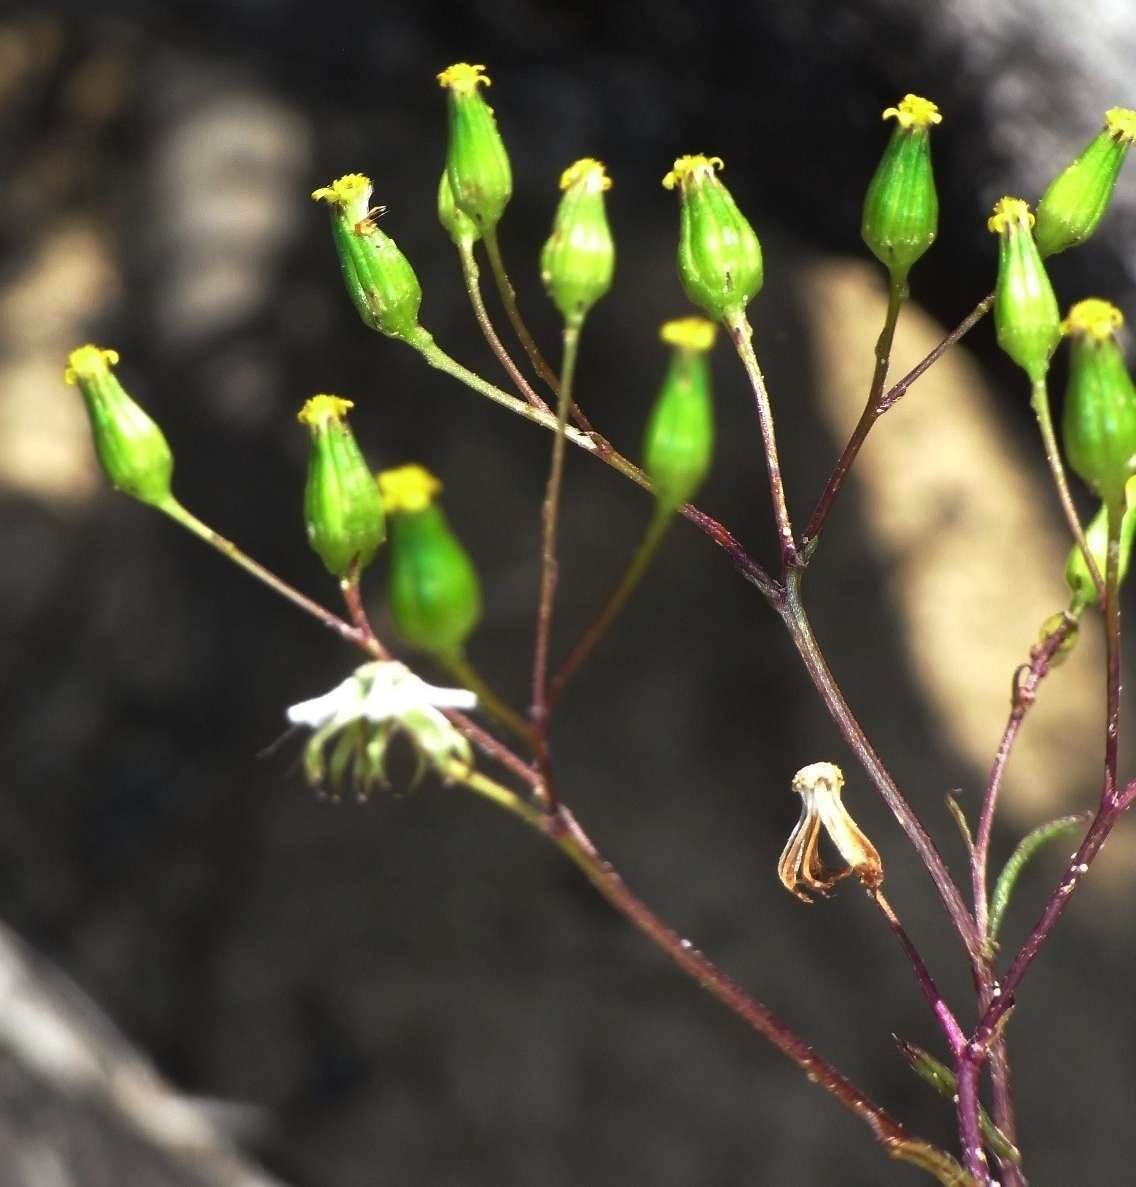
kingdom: Plantae
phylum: Tracheophyta
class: Magnoliopsida
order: Asterales
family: Asteraceae
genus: Senecio
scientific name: Senecio glossanthus
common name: Slender groundsel
